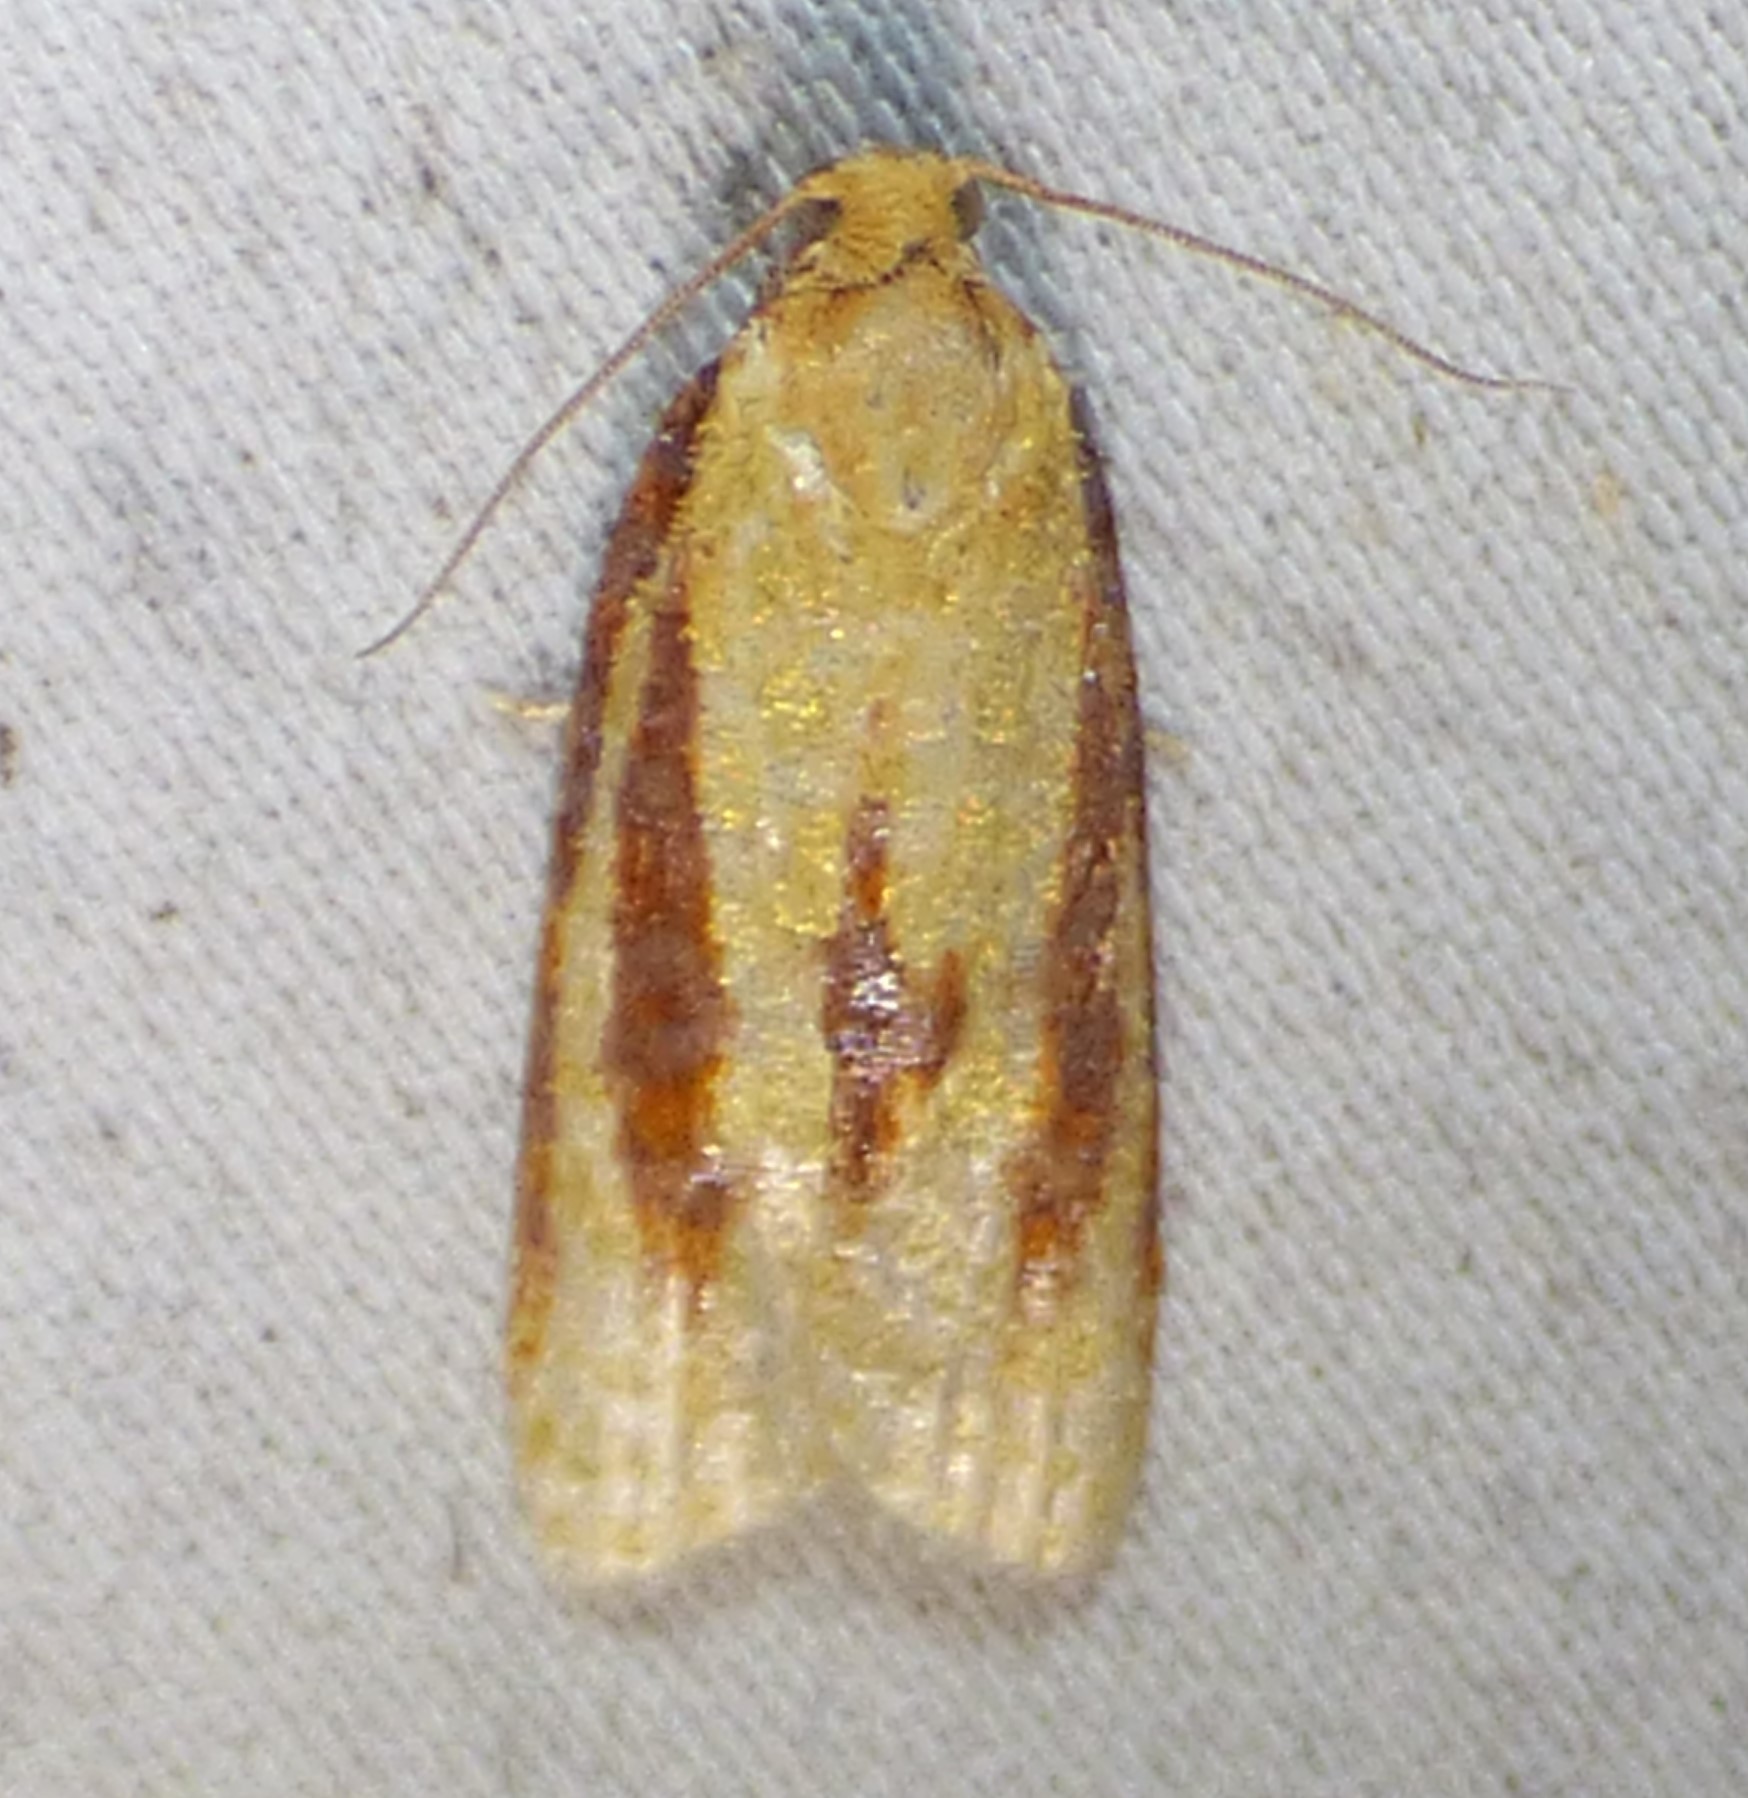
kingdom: Animalia
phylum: Arthropoda
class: Insecta
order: Lepidoptera
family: Tortricidae
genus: Sparganothis
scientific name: Sparganothis bistriata
